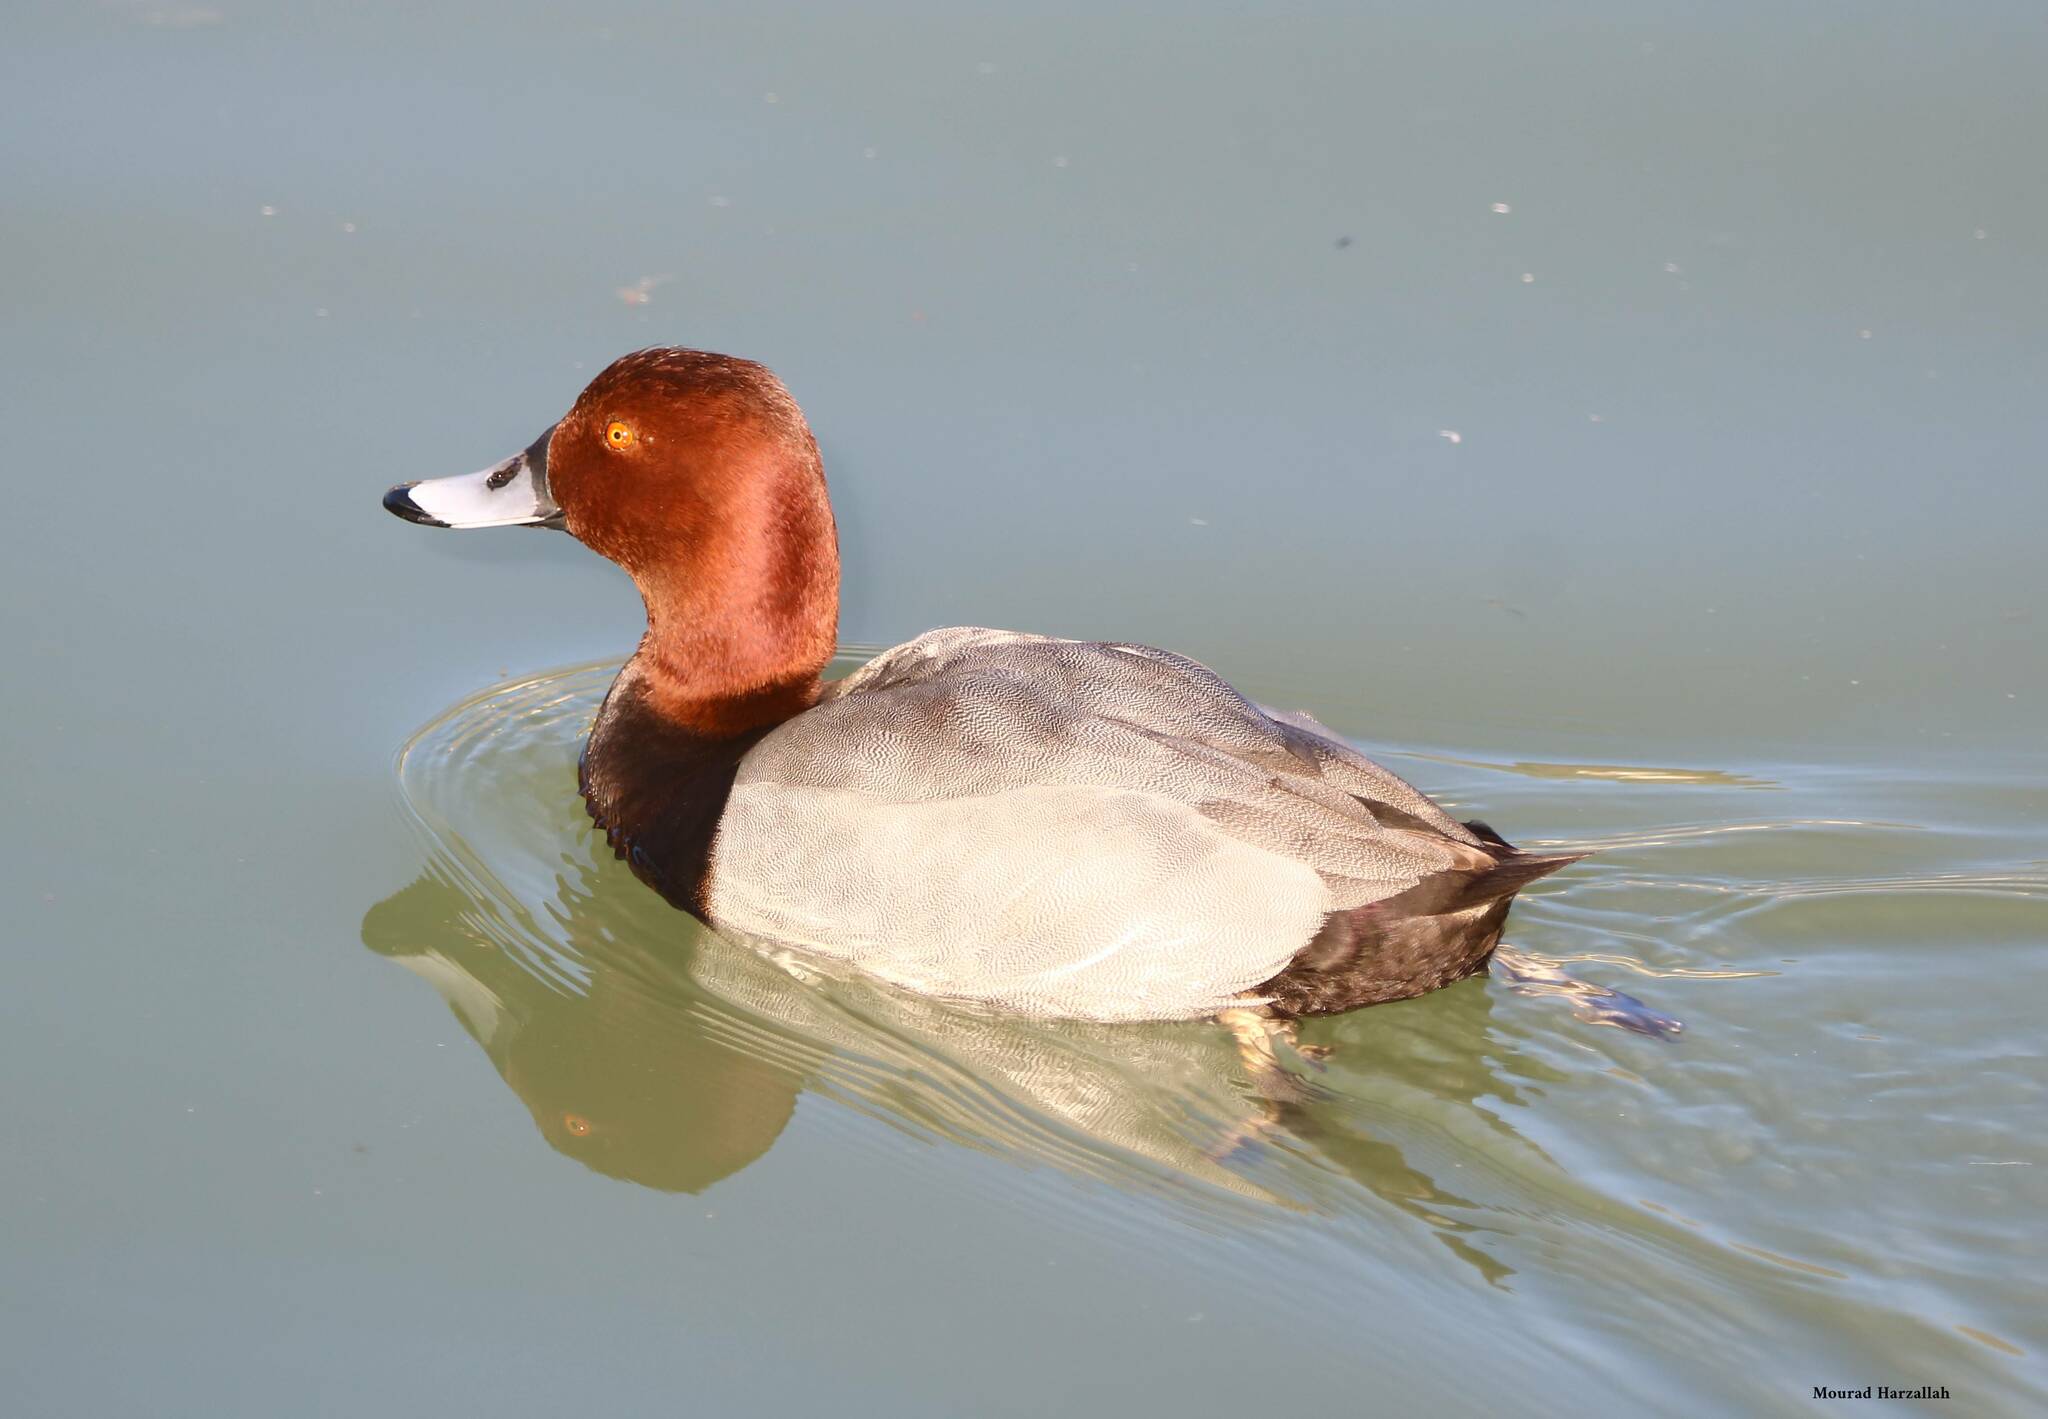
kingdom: Animalia
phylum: Chordata
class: Aves
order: Anseriformes
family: Anatidae
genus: Aythya
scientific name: Aythya ferina
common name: Common pochard
